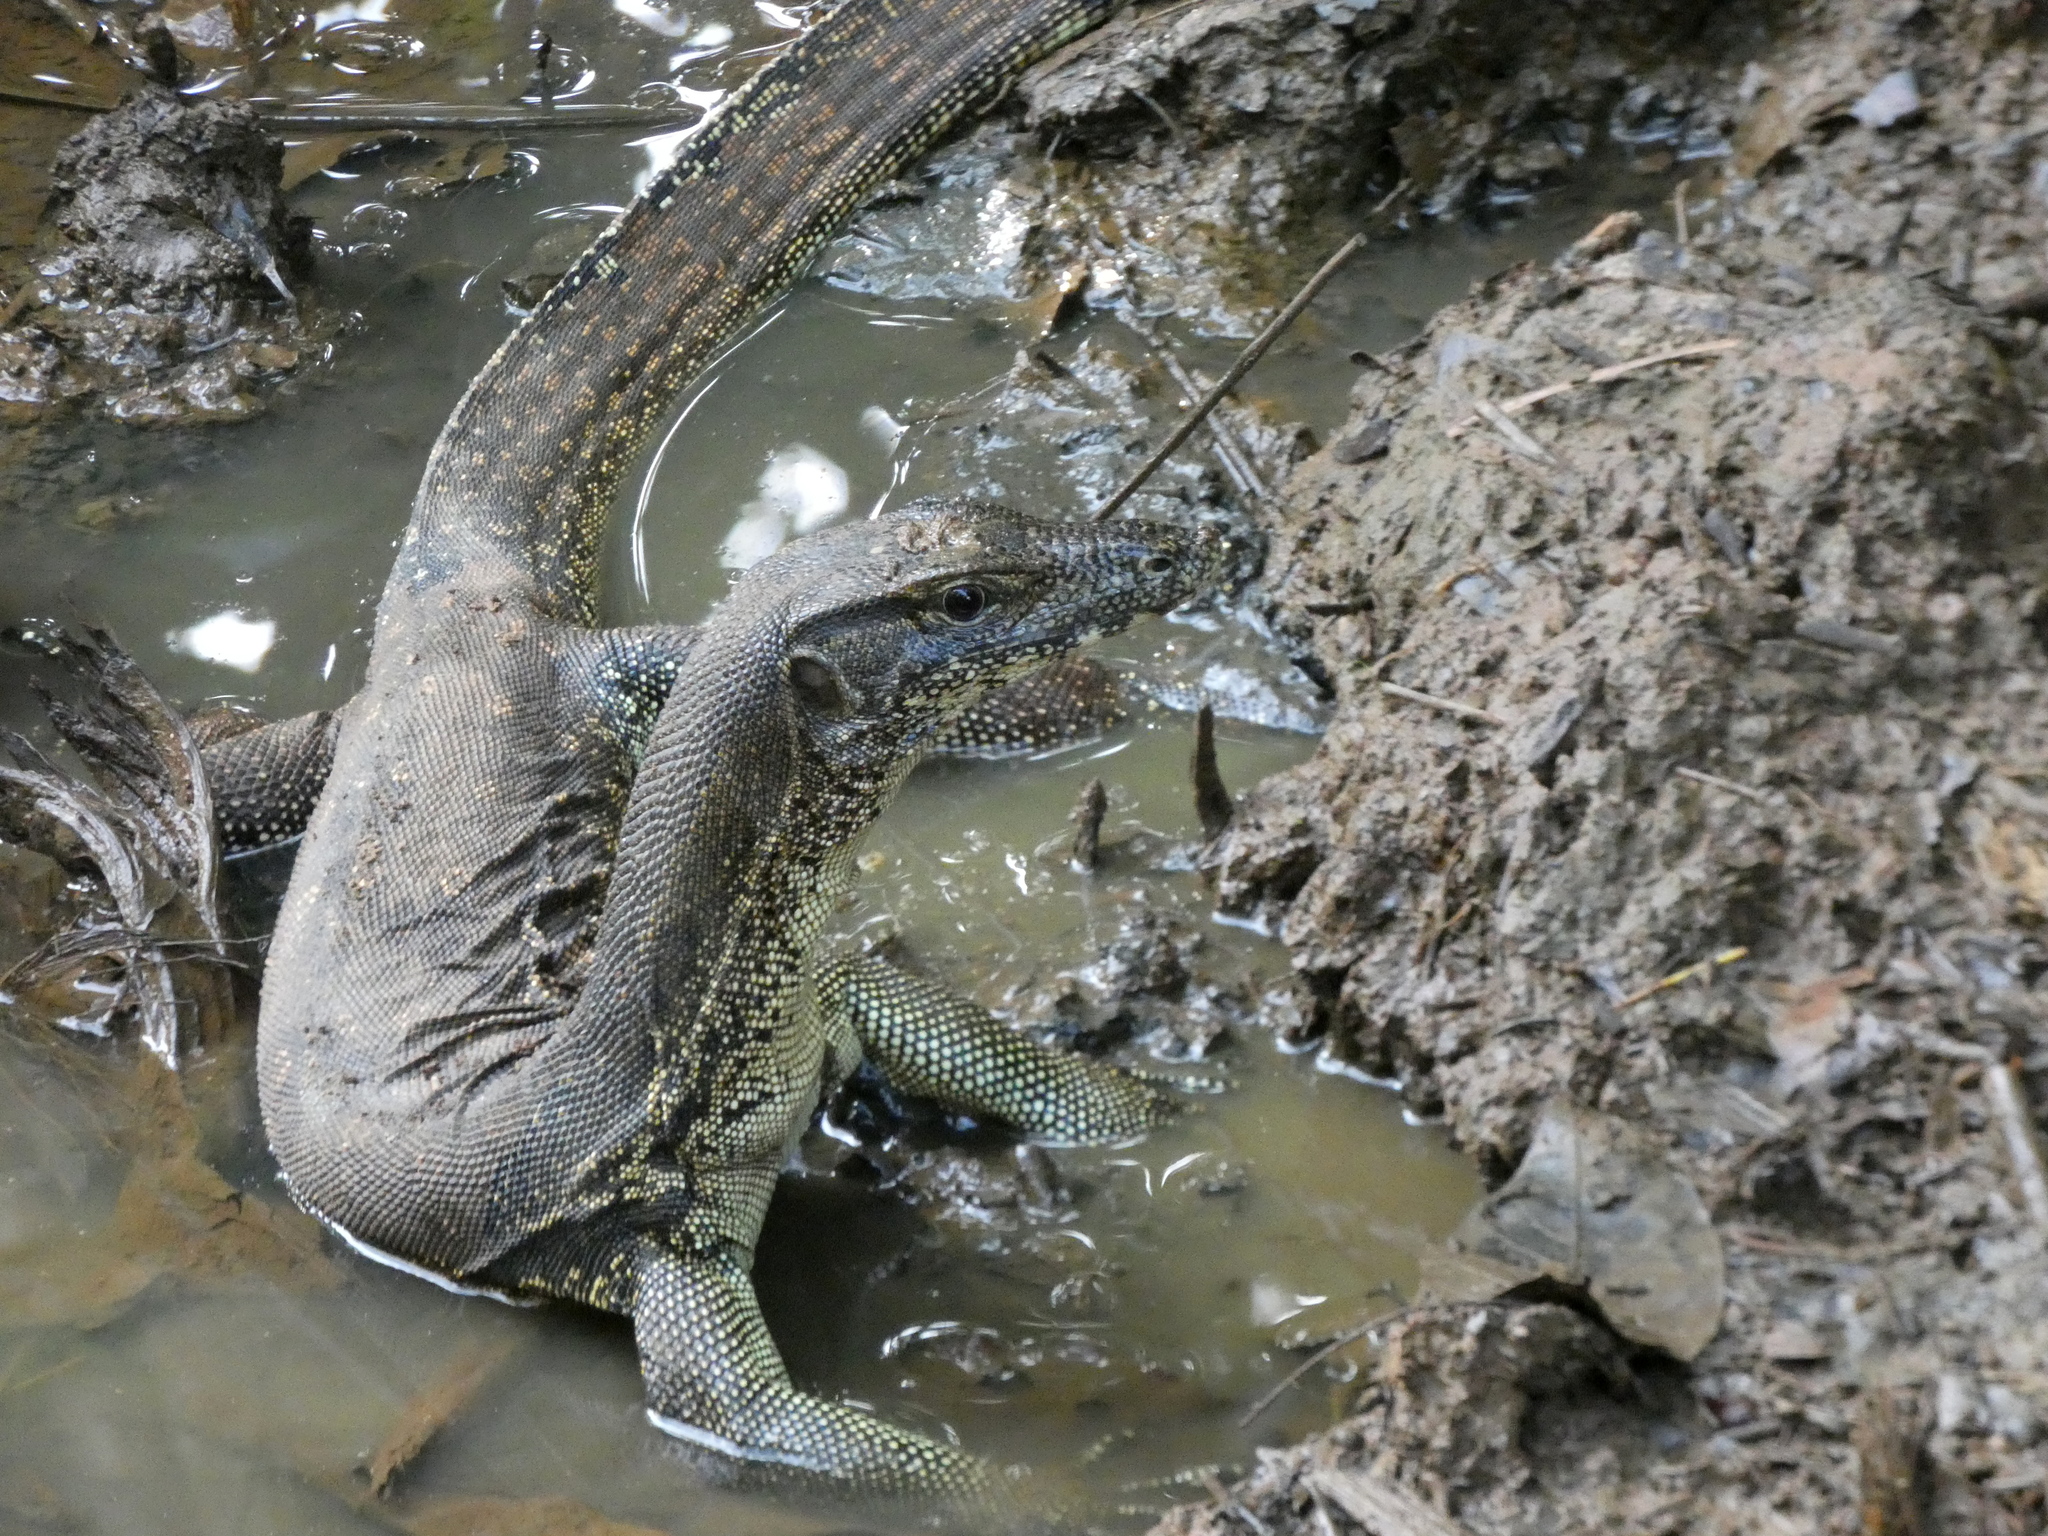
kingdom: Animalia
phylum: Chordata
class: Squamata
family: Varanidae
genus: Varanus
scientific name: Varanus salvator
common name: Common water monitor
